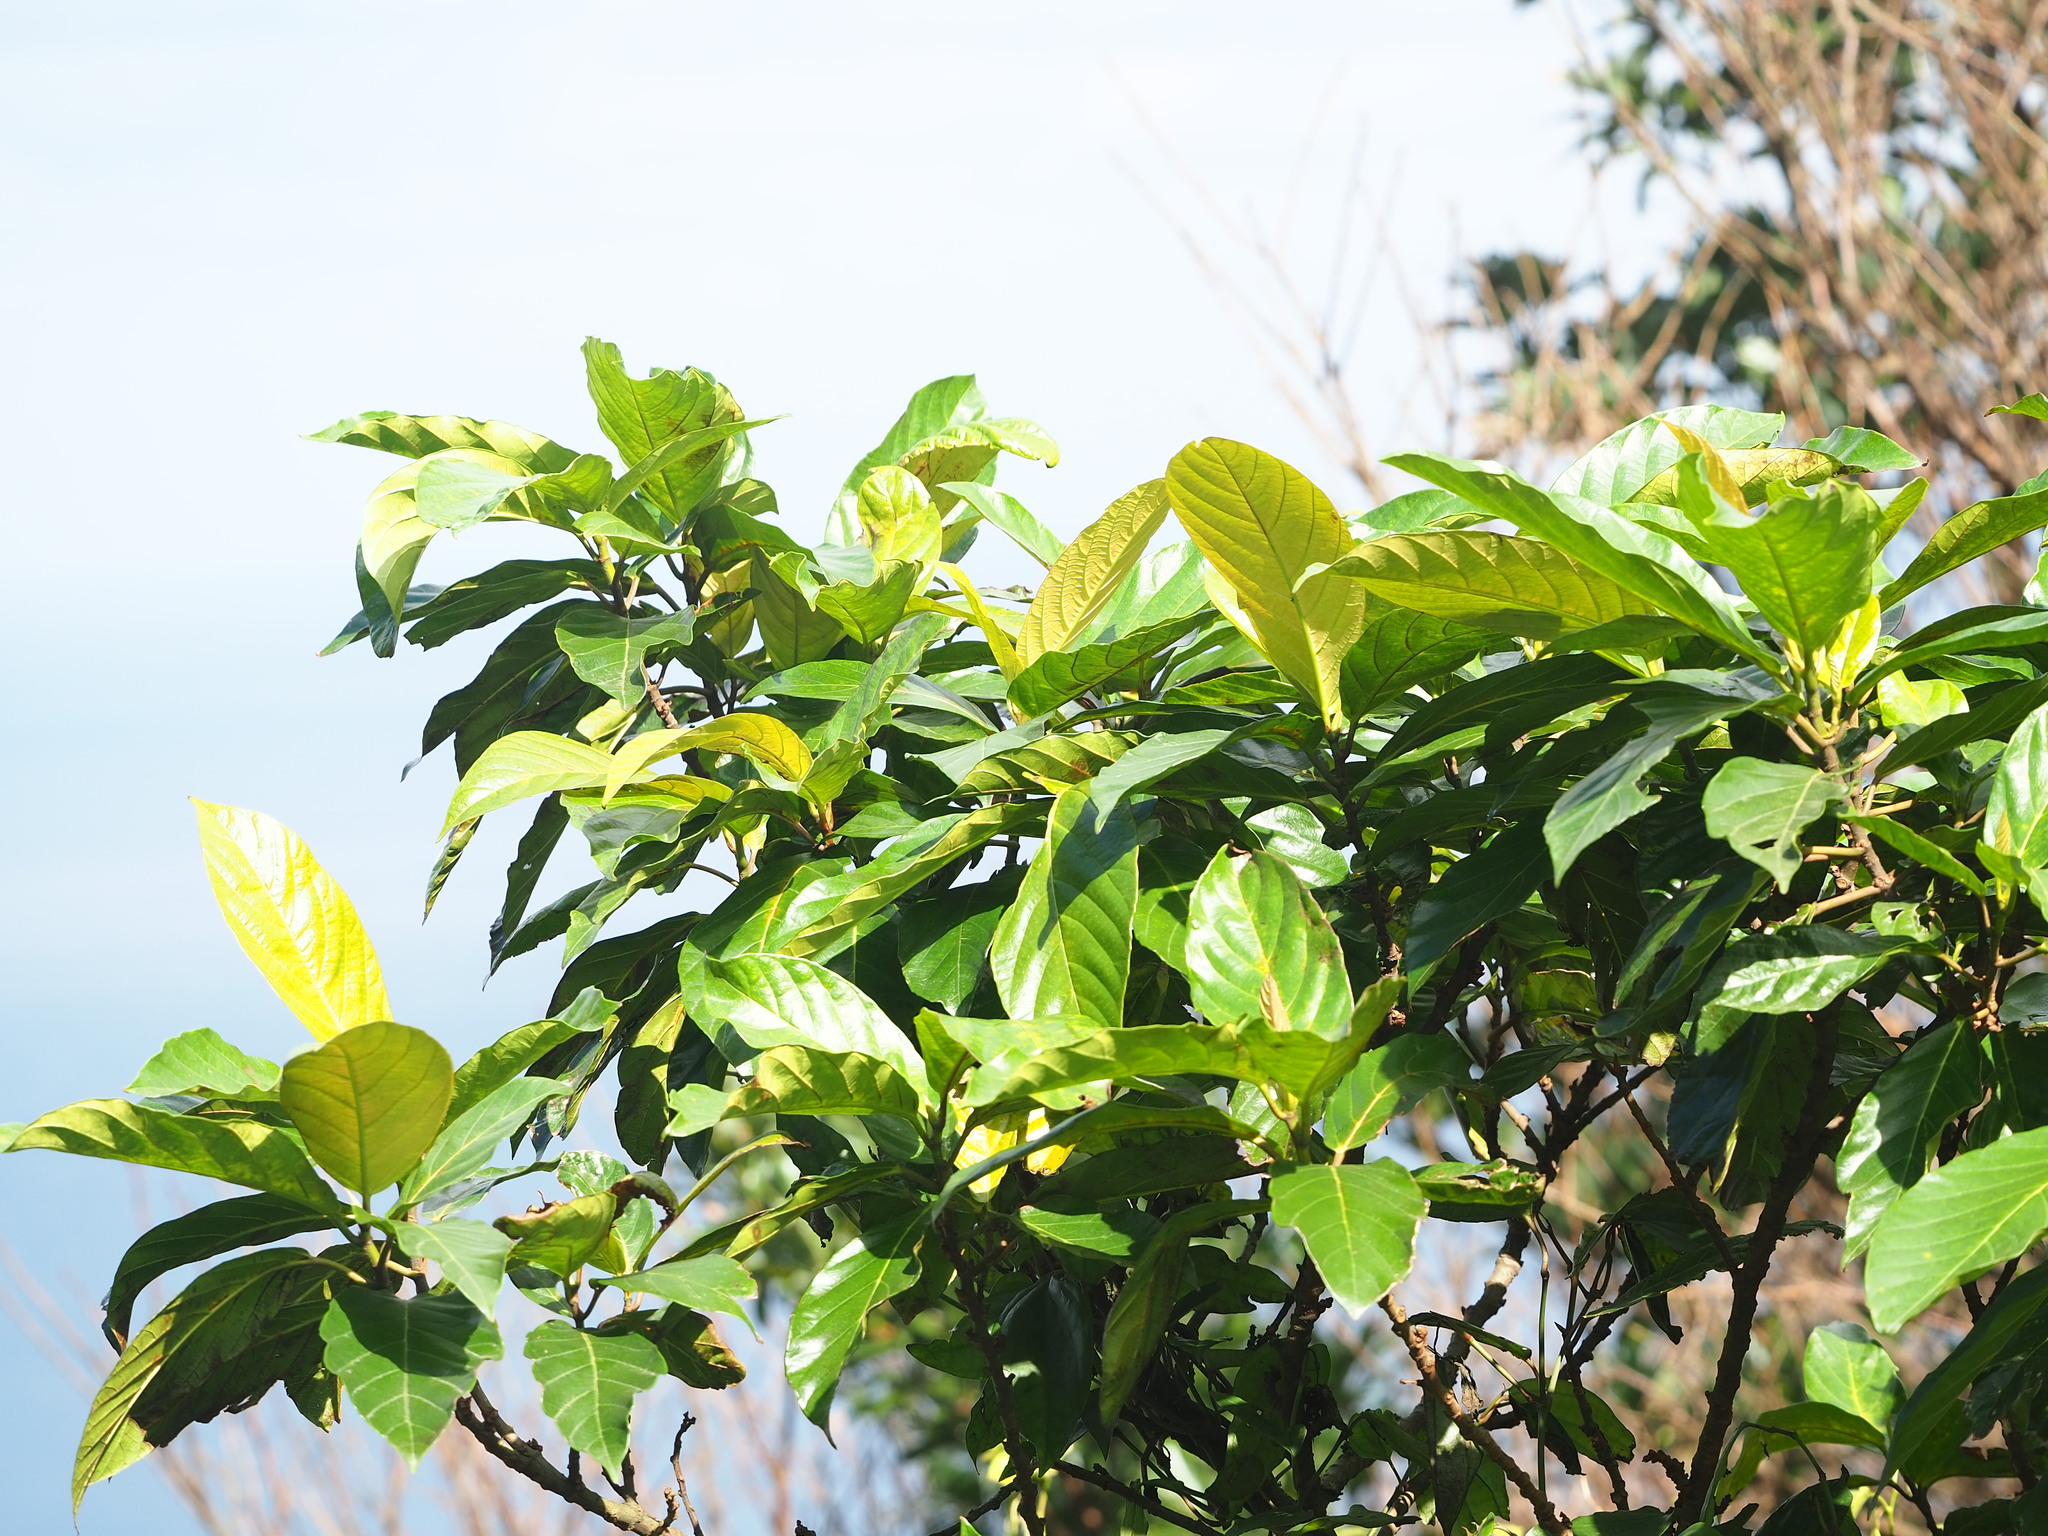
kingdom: Plantae
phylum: Tracheophyta
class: Magnoliopsida
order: Rosales
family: Moraceae
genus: Ficus
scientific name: Ficus benguetensis
